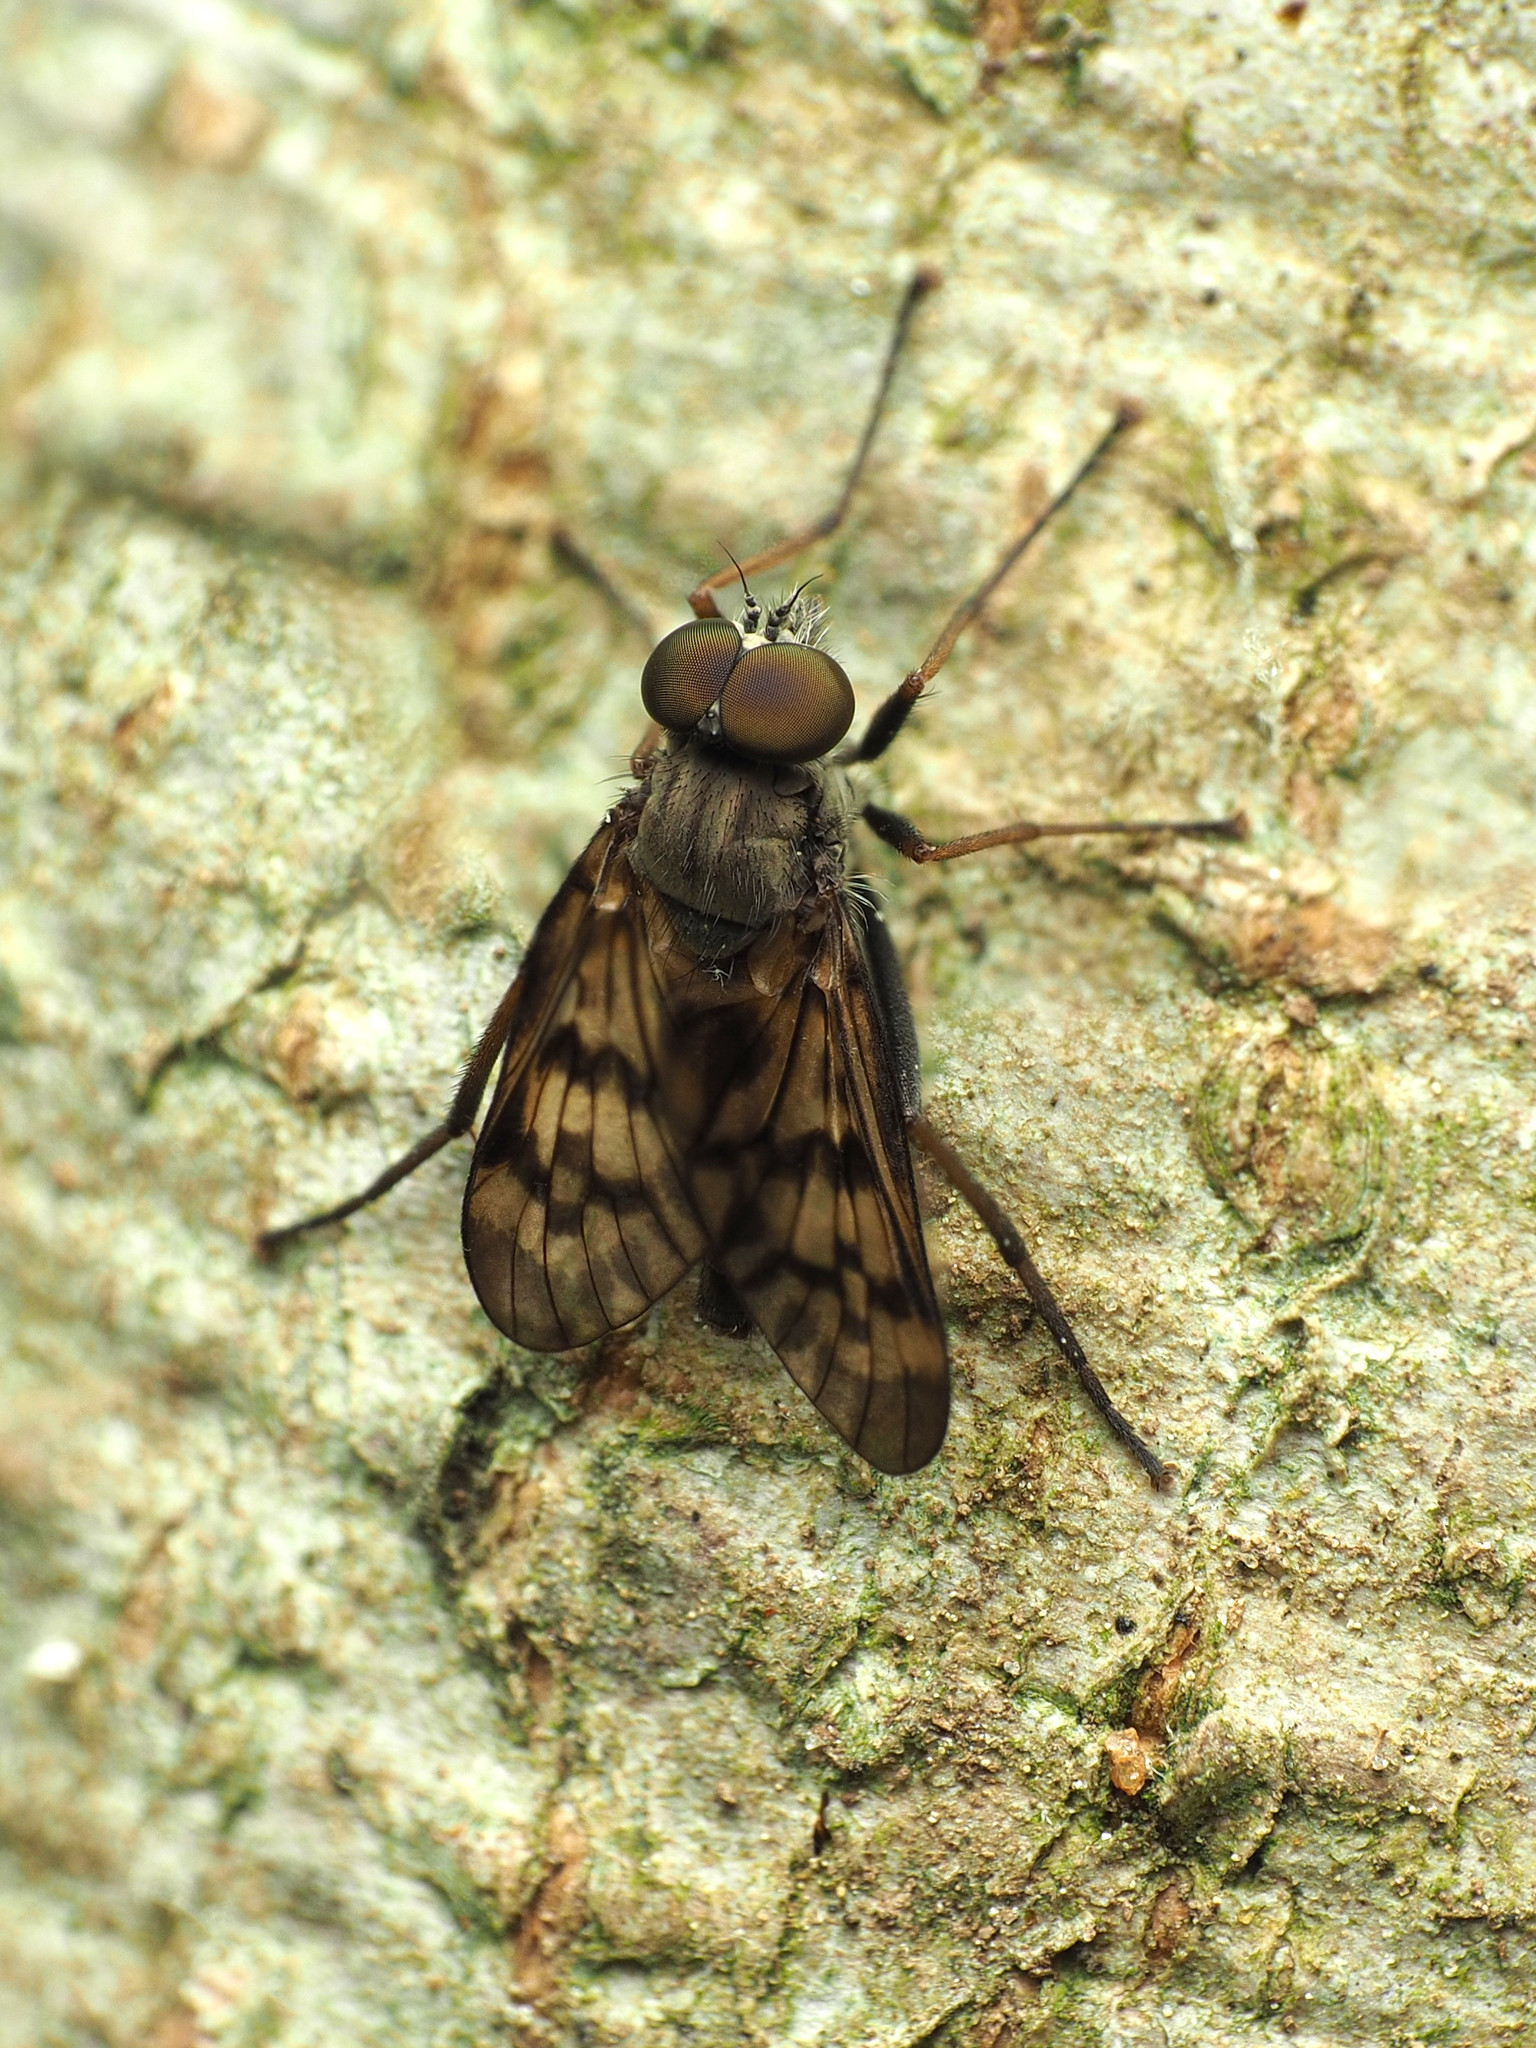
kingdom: Animalia
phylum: Arthropoda
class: Insecta
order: Diptera
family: Rhagionidae
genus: Rhagio
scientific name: Rhagio punctipennis
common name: Lesser variegated snipe fly
